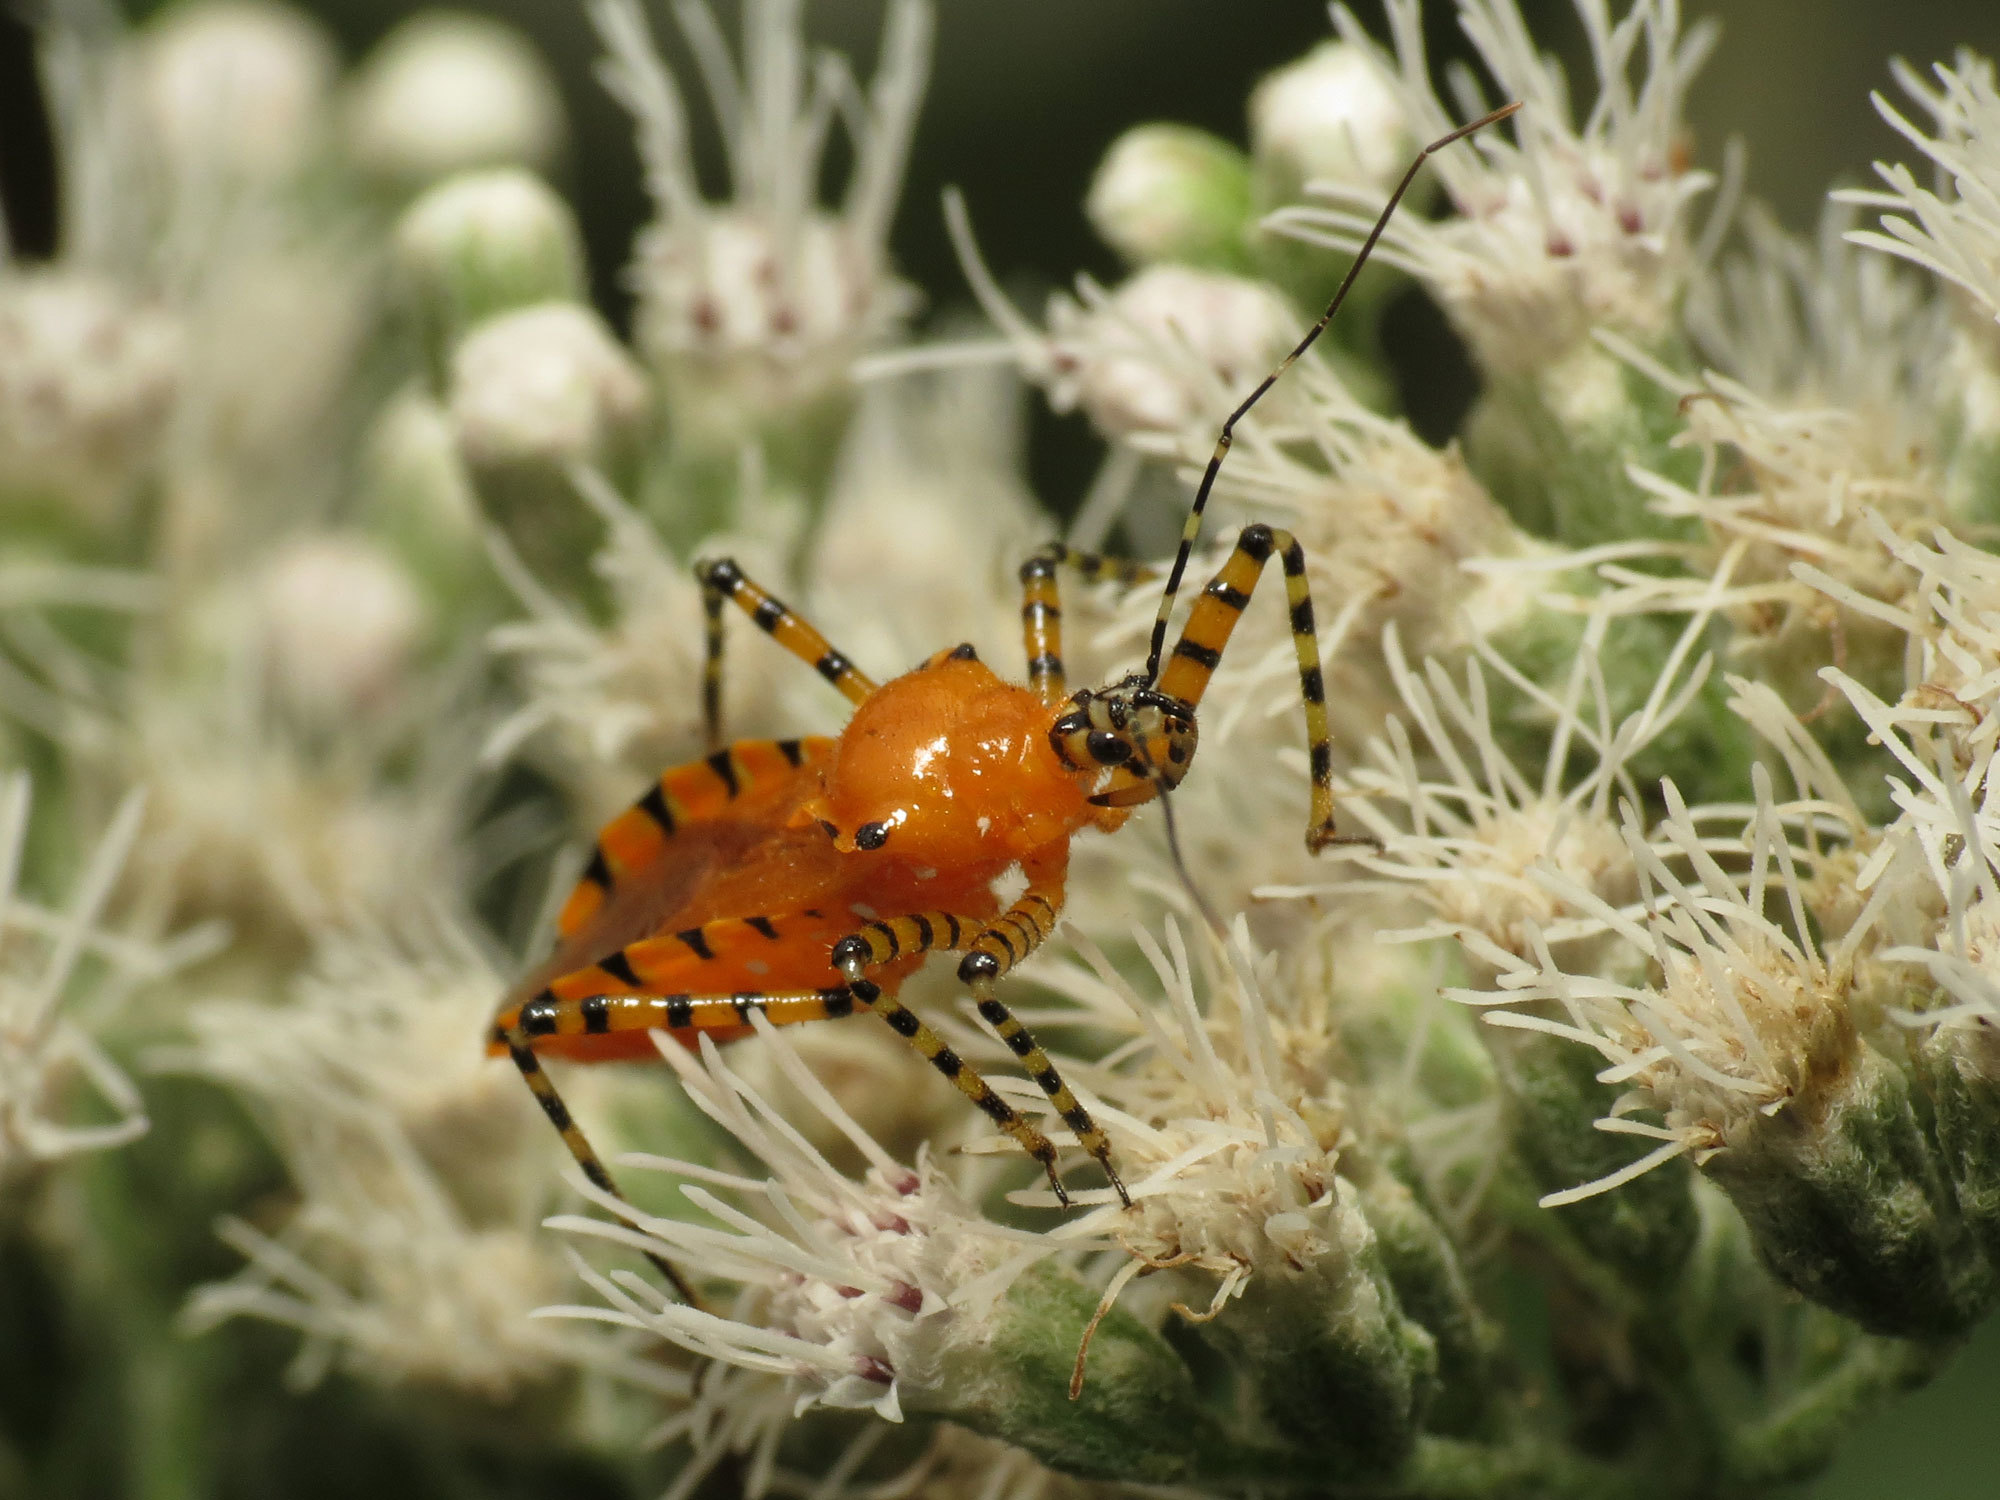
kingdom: Animalia
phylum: Arthropoda
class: Insecta
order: Hemiptera
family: Reduviidae
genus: Pselliopus
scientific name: Pselliopus barberi
